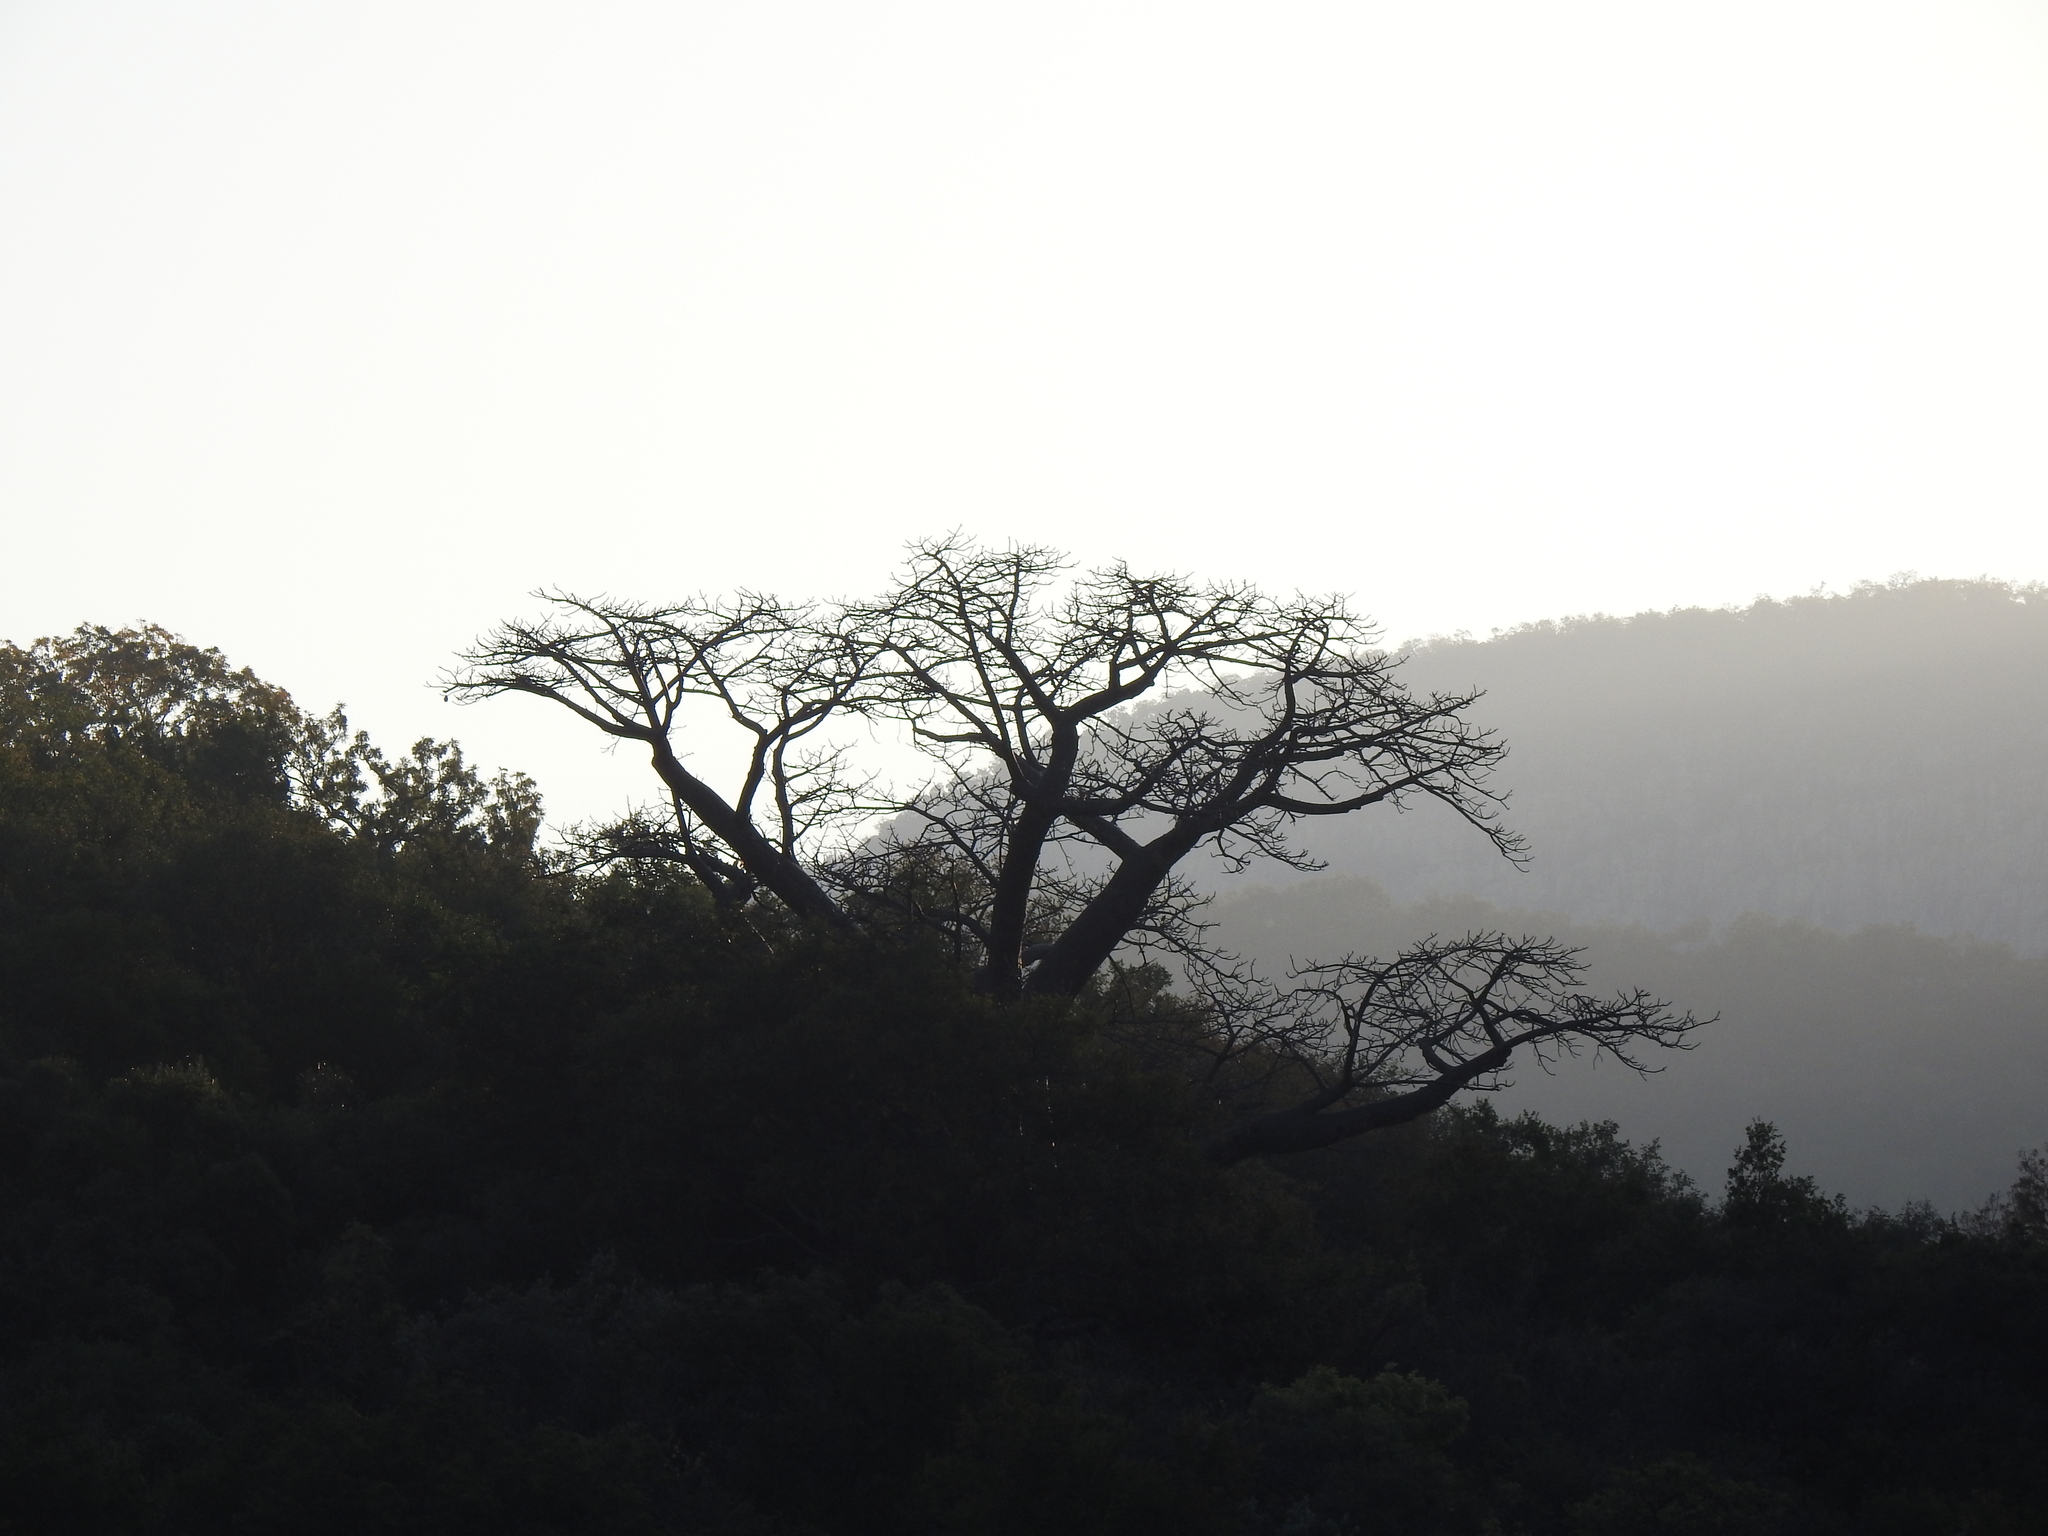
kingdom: Plantae
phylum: Tracheophyta
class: Magnoliopsida
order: Malvales
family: Malvaceae
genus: Adansonia
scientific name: Adansonia digitata
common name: Dead-rat-tree
